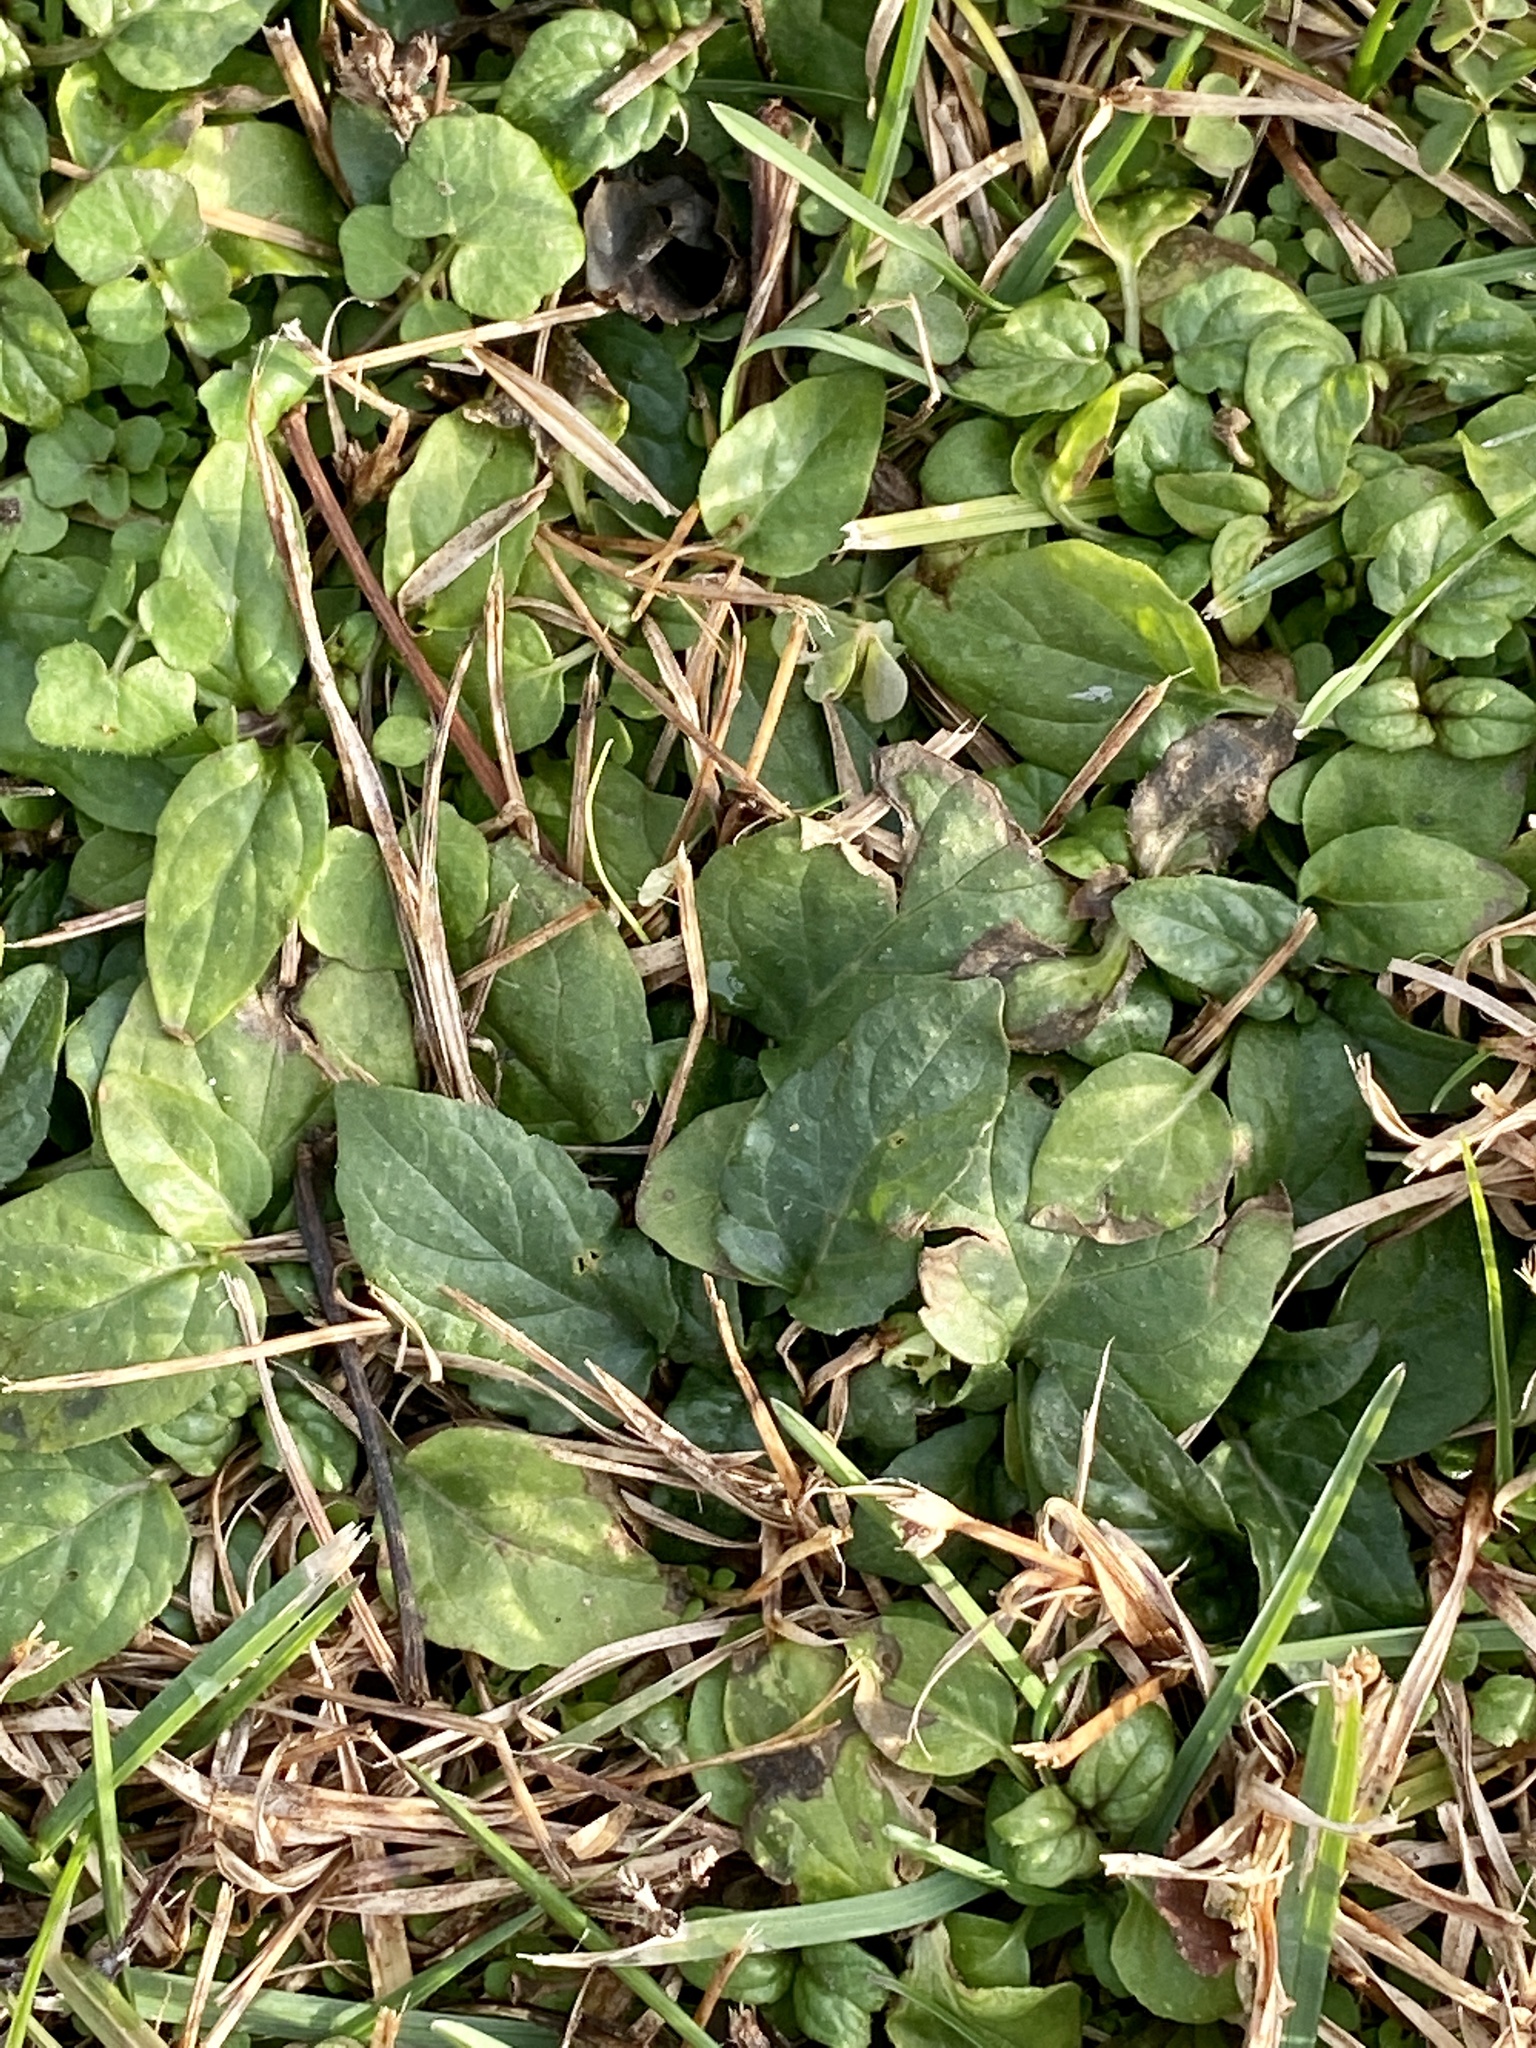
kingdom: Plantae
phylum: Tracheophyta
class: Magnoliopsida
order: Lamiales
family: Lamiaceae
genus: Prunella
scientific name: Prunella vulgaris
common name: Heal-all
